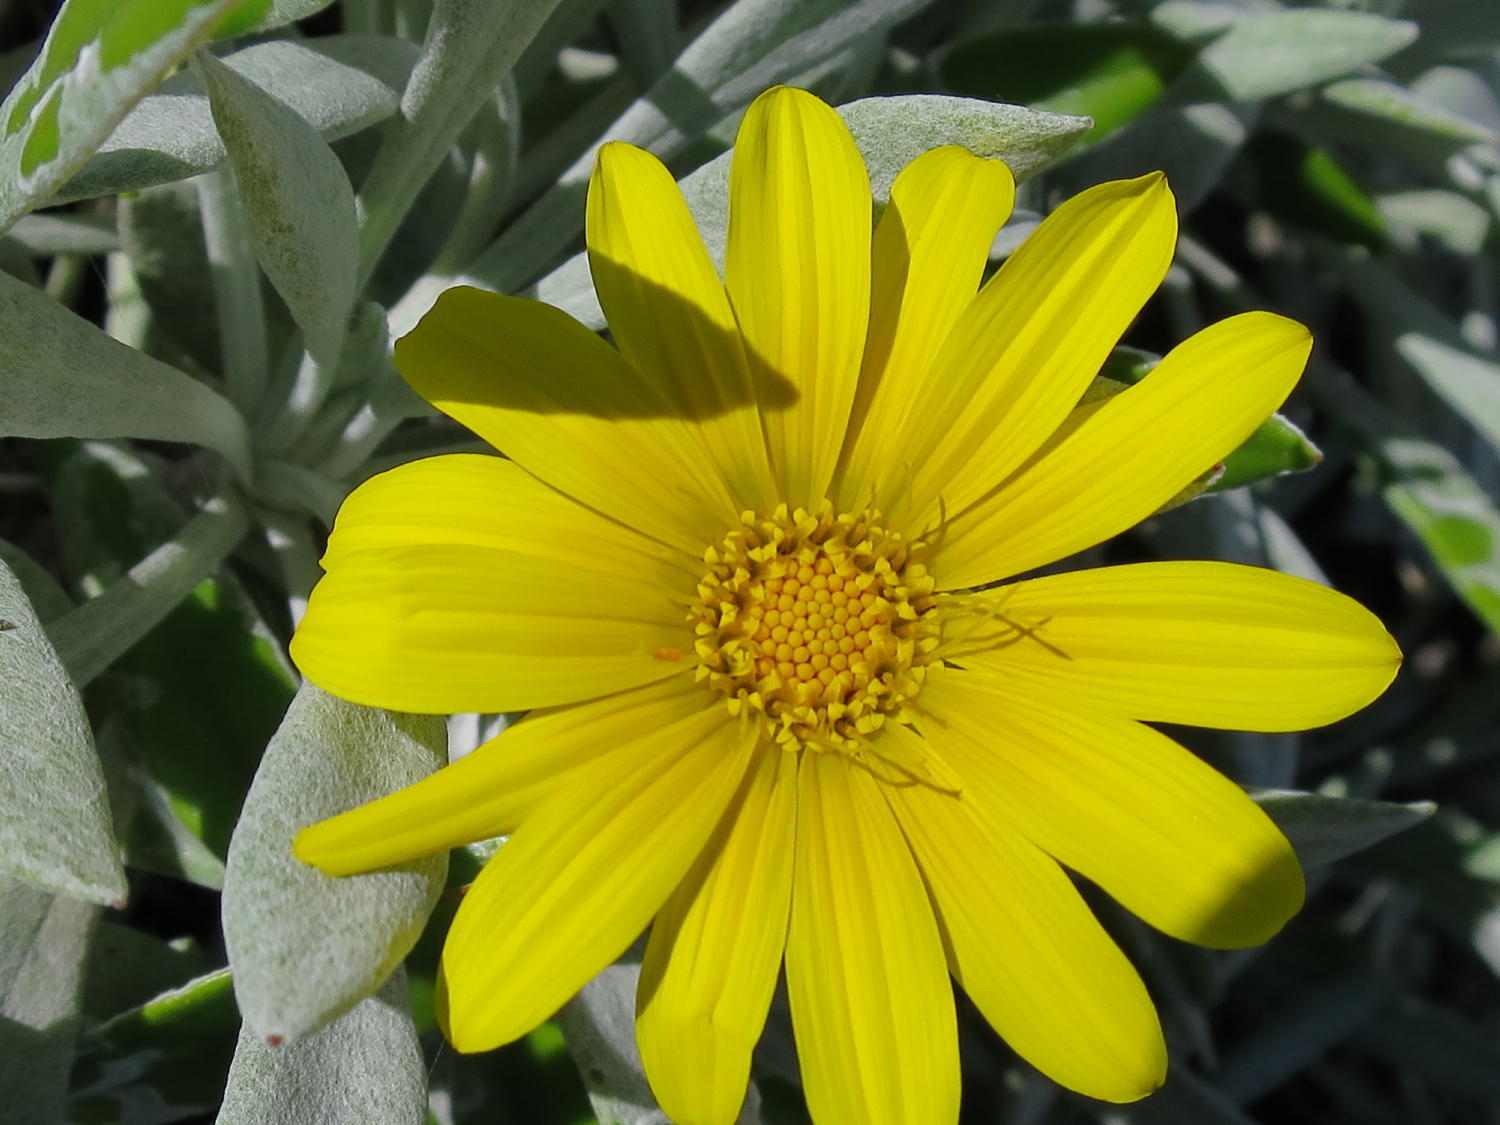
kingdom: Plantae
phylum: Tracheophyta
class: Magnoliopsida
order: Asterales
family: Asteraceae
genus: Gazania
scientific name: Gazania rigens
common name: Treasureflower
